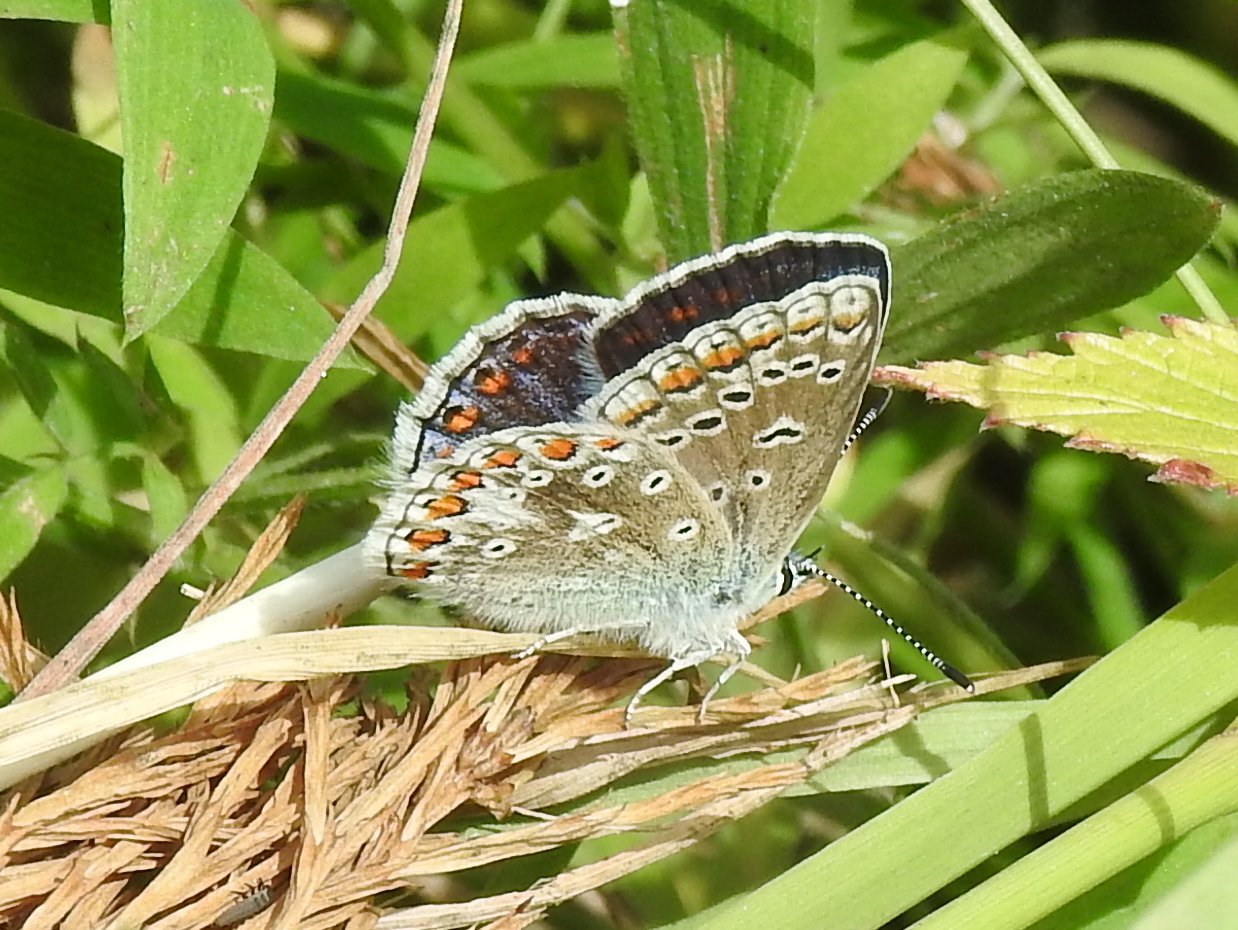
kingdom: Animalia
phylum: Arthropoda
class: Insecta
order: Lepidoptera
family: Lycaenidae
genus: Polyommatus
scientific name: Polyommatus icarus
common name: Common blue
